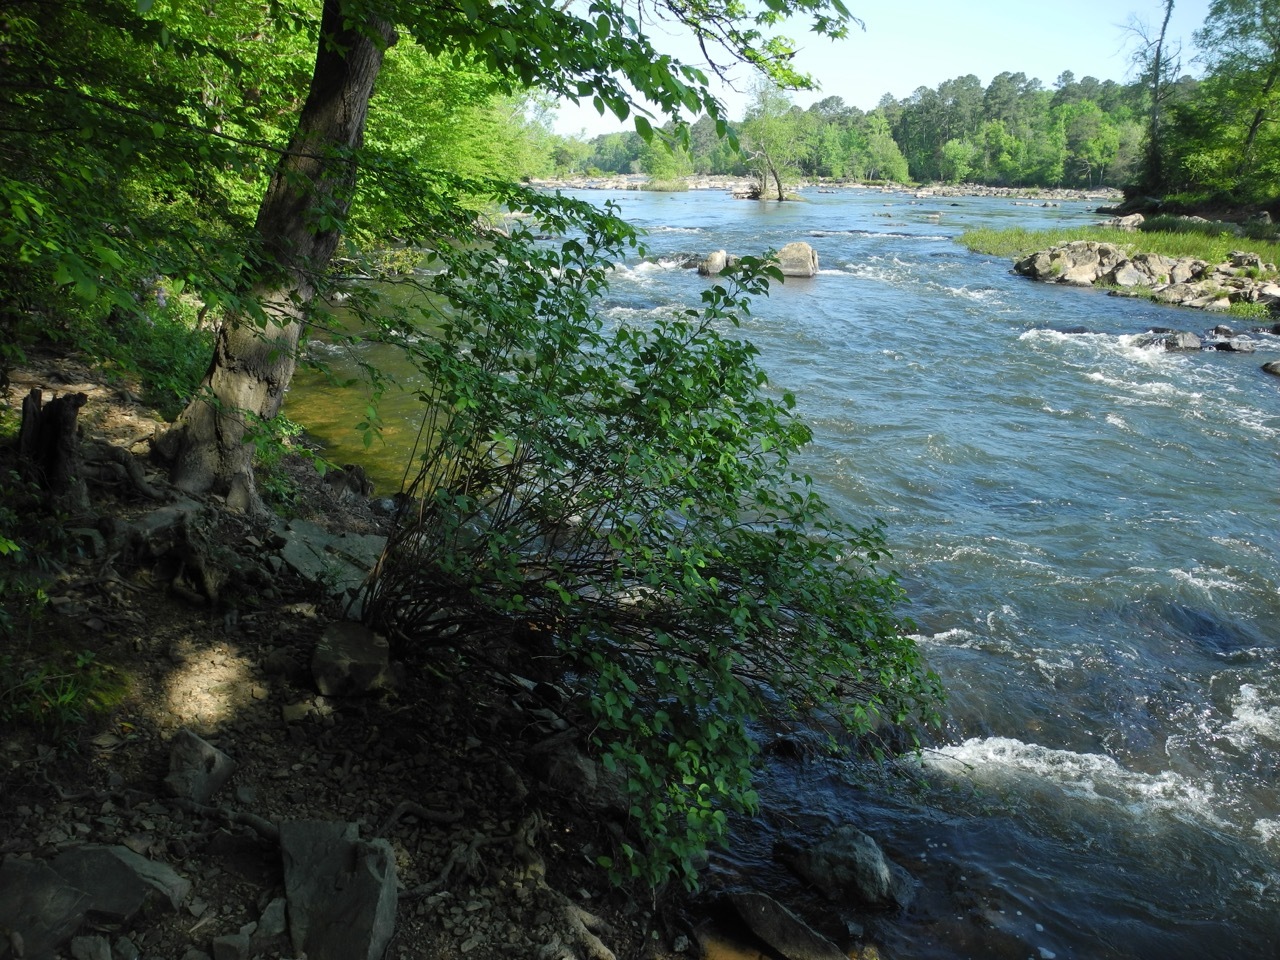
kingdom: Plantae
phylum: Tracheophyta
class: Magnoliopsida
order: Dipsacales
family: Viburnaceae
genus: Viburnum
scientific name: Viburnum recognitum
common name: Northern arrow-wood
